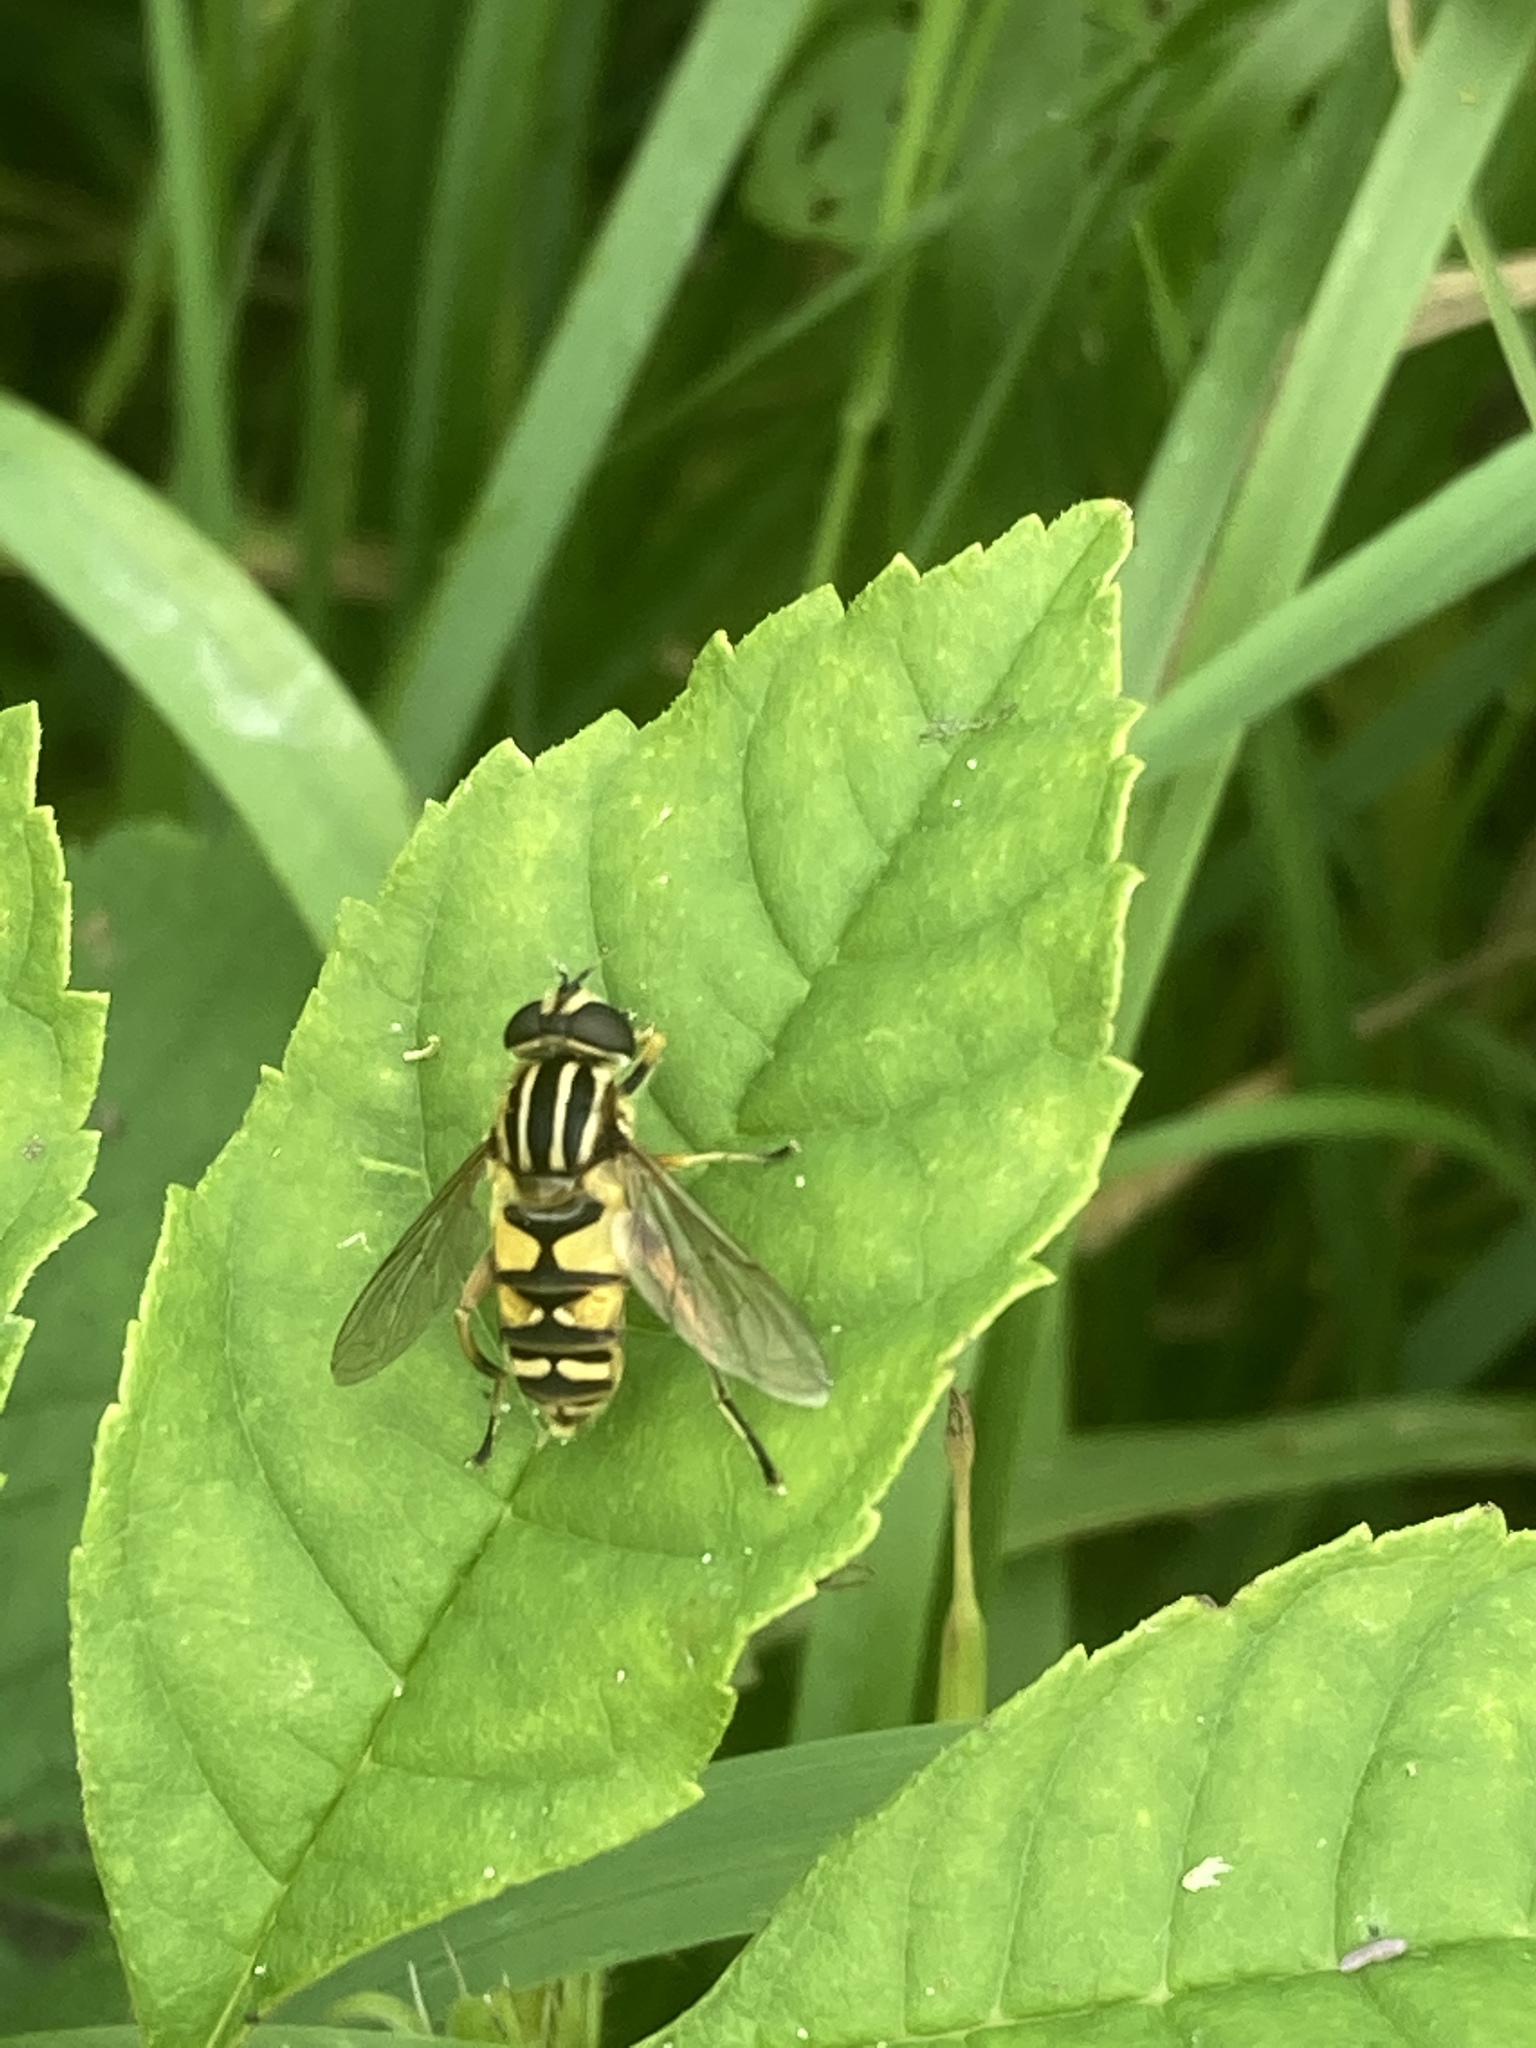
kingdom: Animalia
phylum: Arthropoda
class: Insecta
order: Diptera
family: Syrphidae
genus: Helophilus
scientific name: Helophilus pendulus
